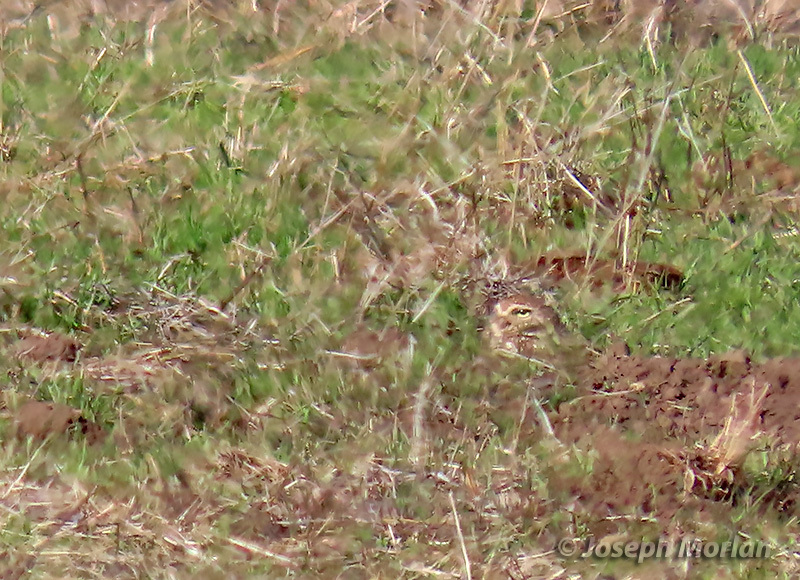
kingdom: Animalia
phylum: Chordata
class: Aves
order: Strigiformes
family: Strigidae
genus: Athene
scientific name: Athene cunicularia
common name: Burrowing owl
